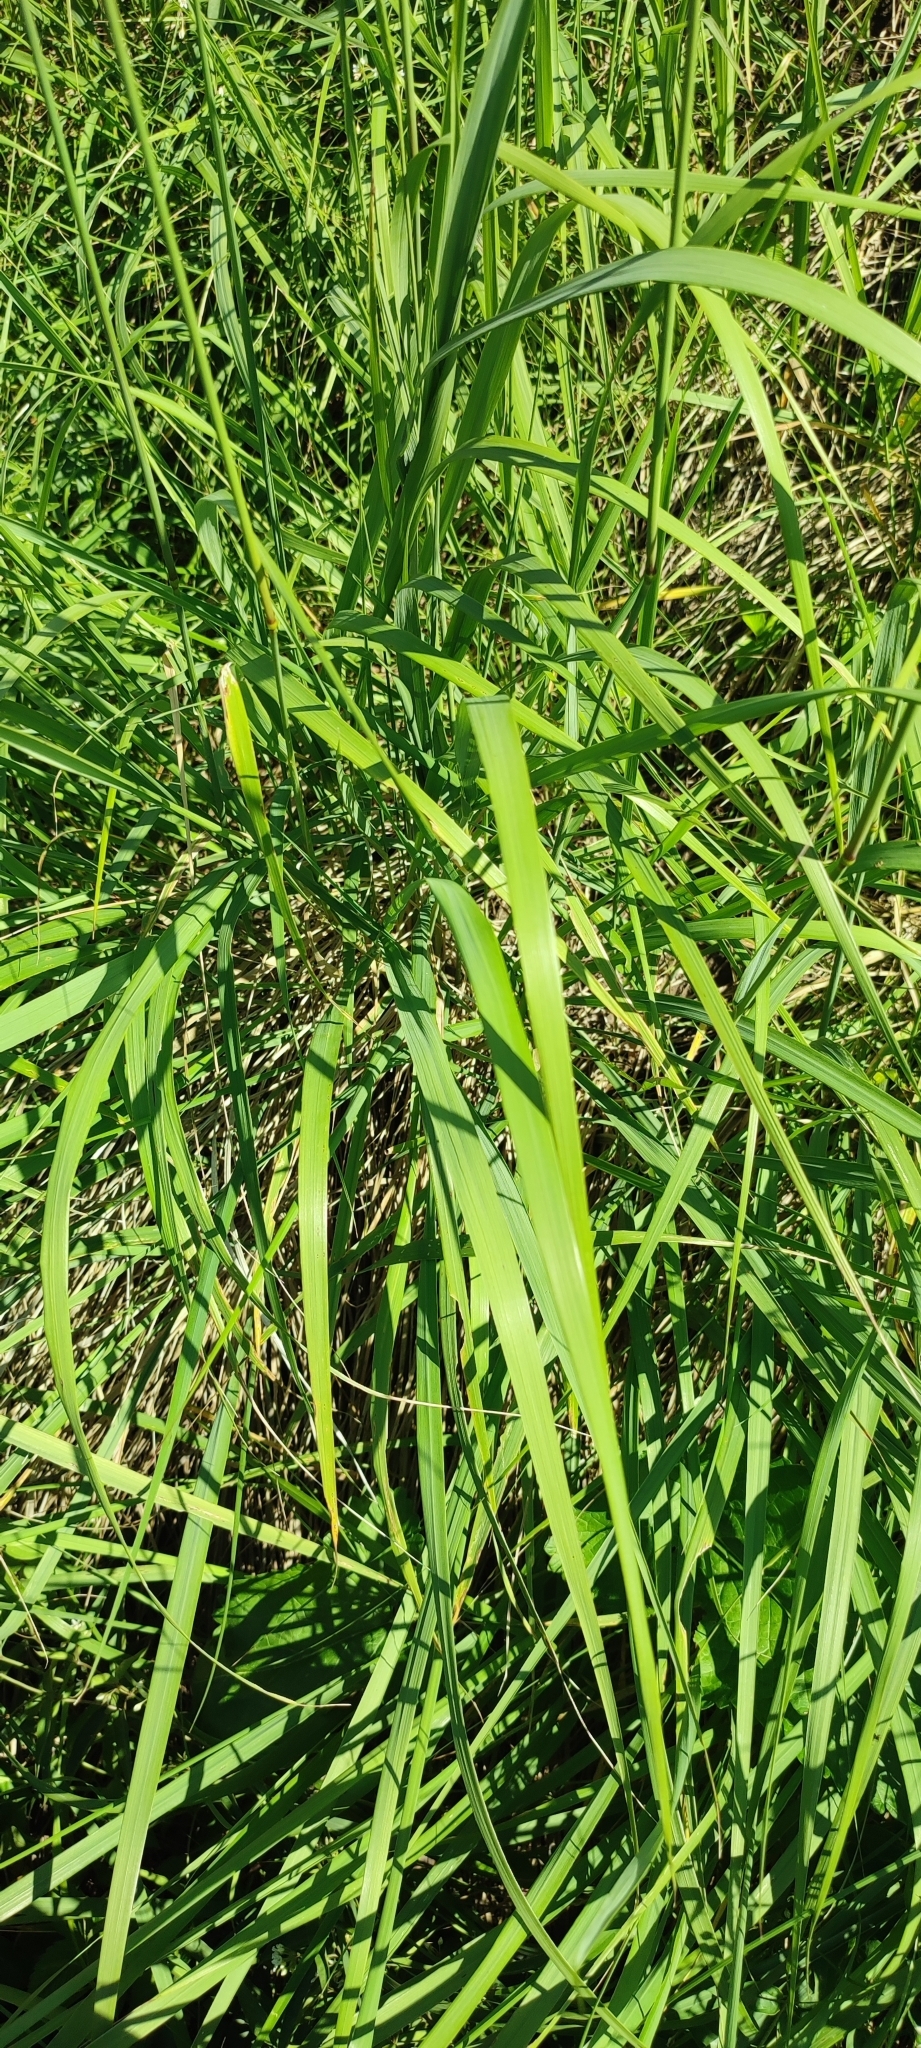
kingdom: Plantae
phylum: Tracheophyta
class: Liliopsida
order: Poales
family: Poaceae
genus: Calamagrostis
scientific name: Calamagrostis epigejos
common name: Wood small-reed
